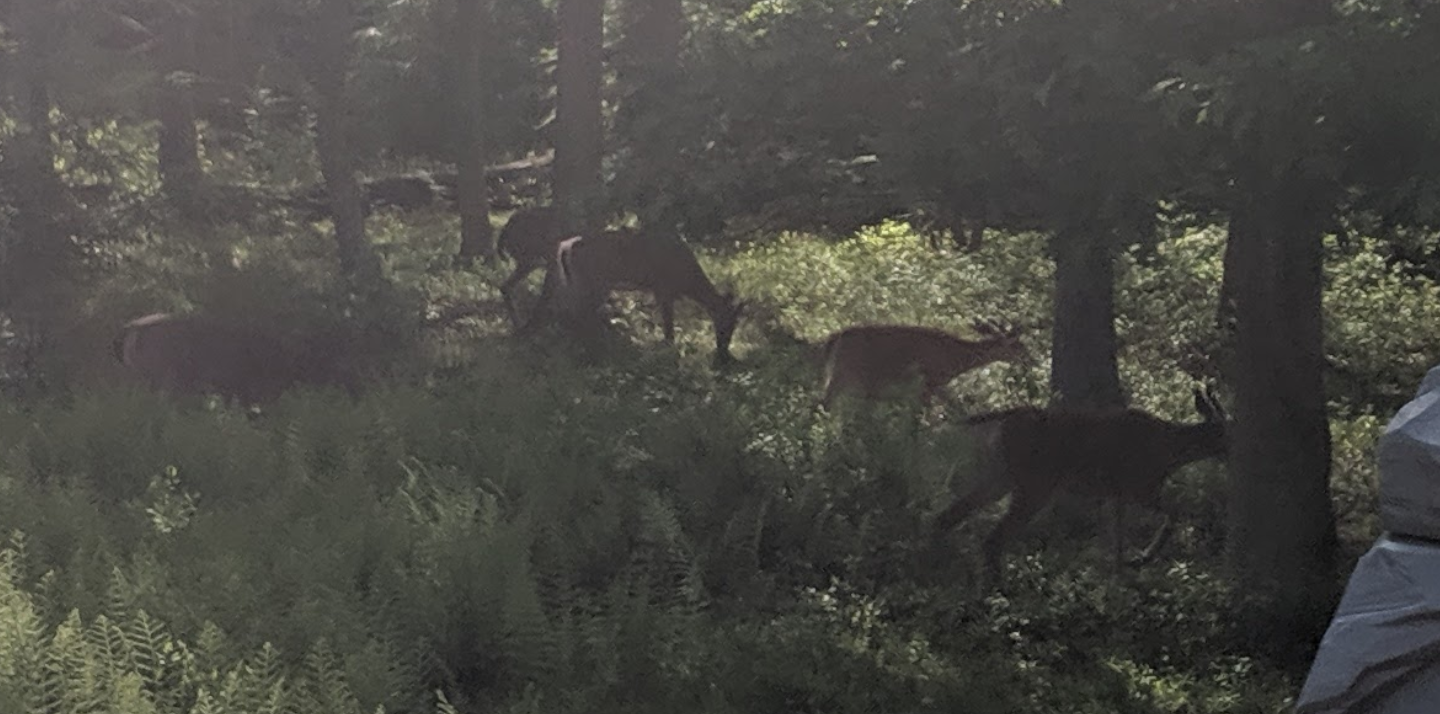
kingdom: Animalia
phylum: Chordata
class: Mammalia
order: Artiodactyla
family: Cervidae
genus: Odocoileus
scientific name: Odocoileus virginianus
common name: White-tailed deer
